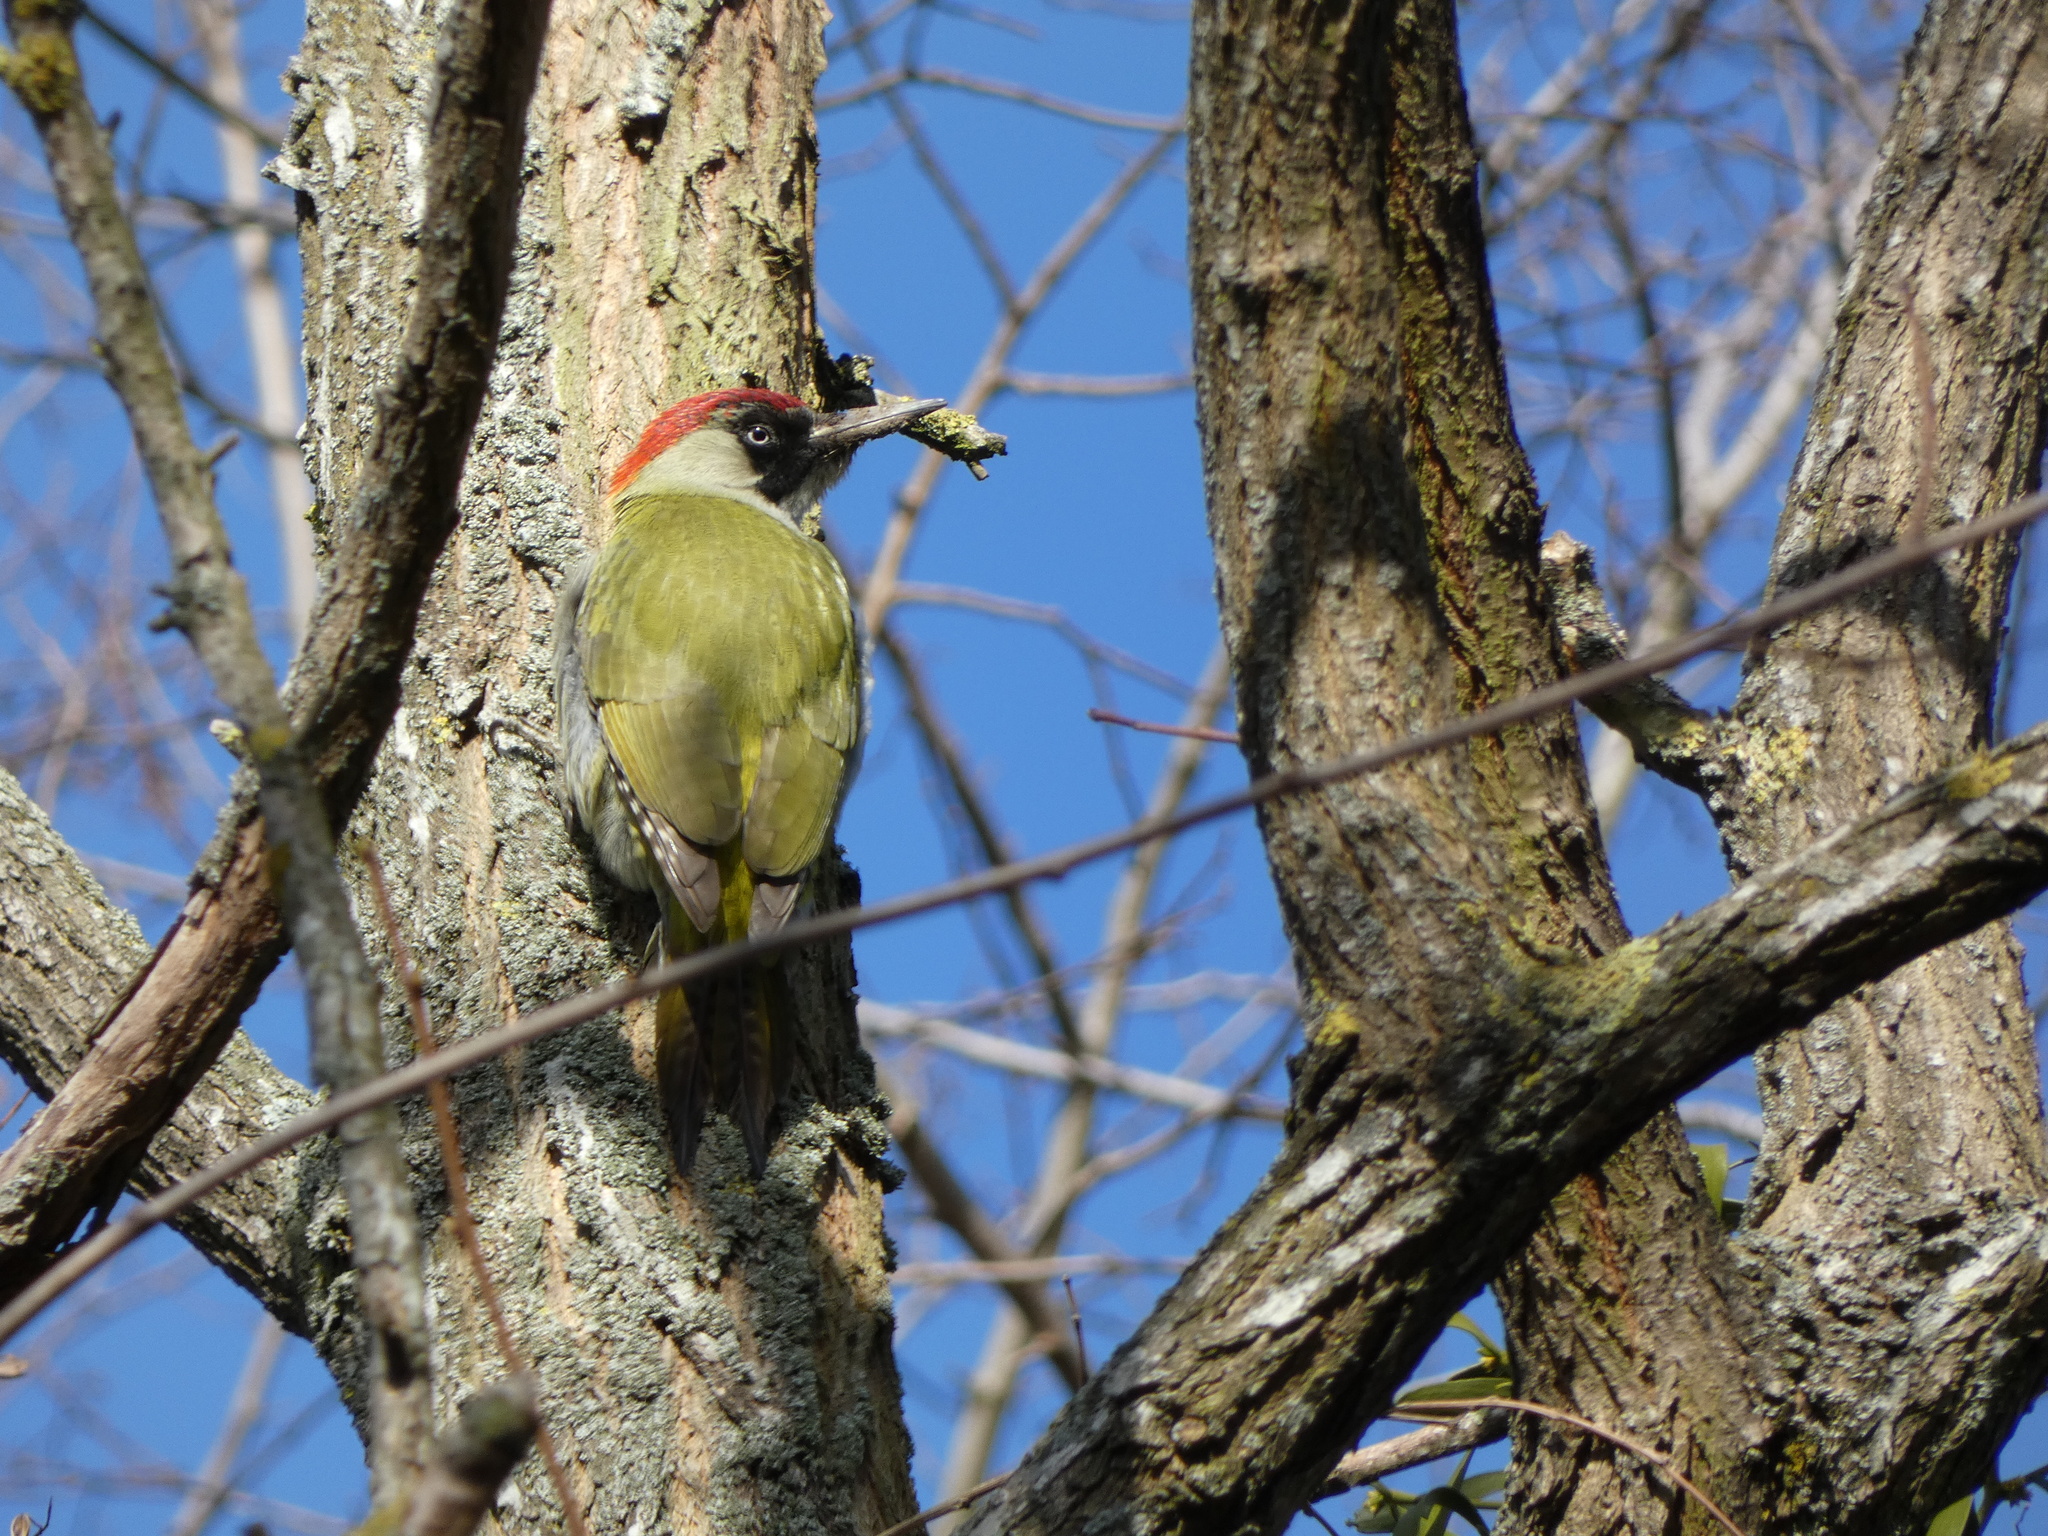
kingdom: Animalia
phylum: Chordata
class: Aves
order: Piciformes
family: Picidae
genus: Picus
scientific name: Picus viridis
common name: European green woodpecker
